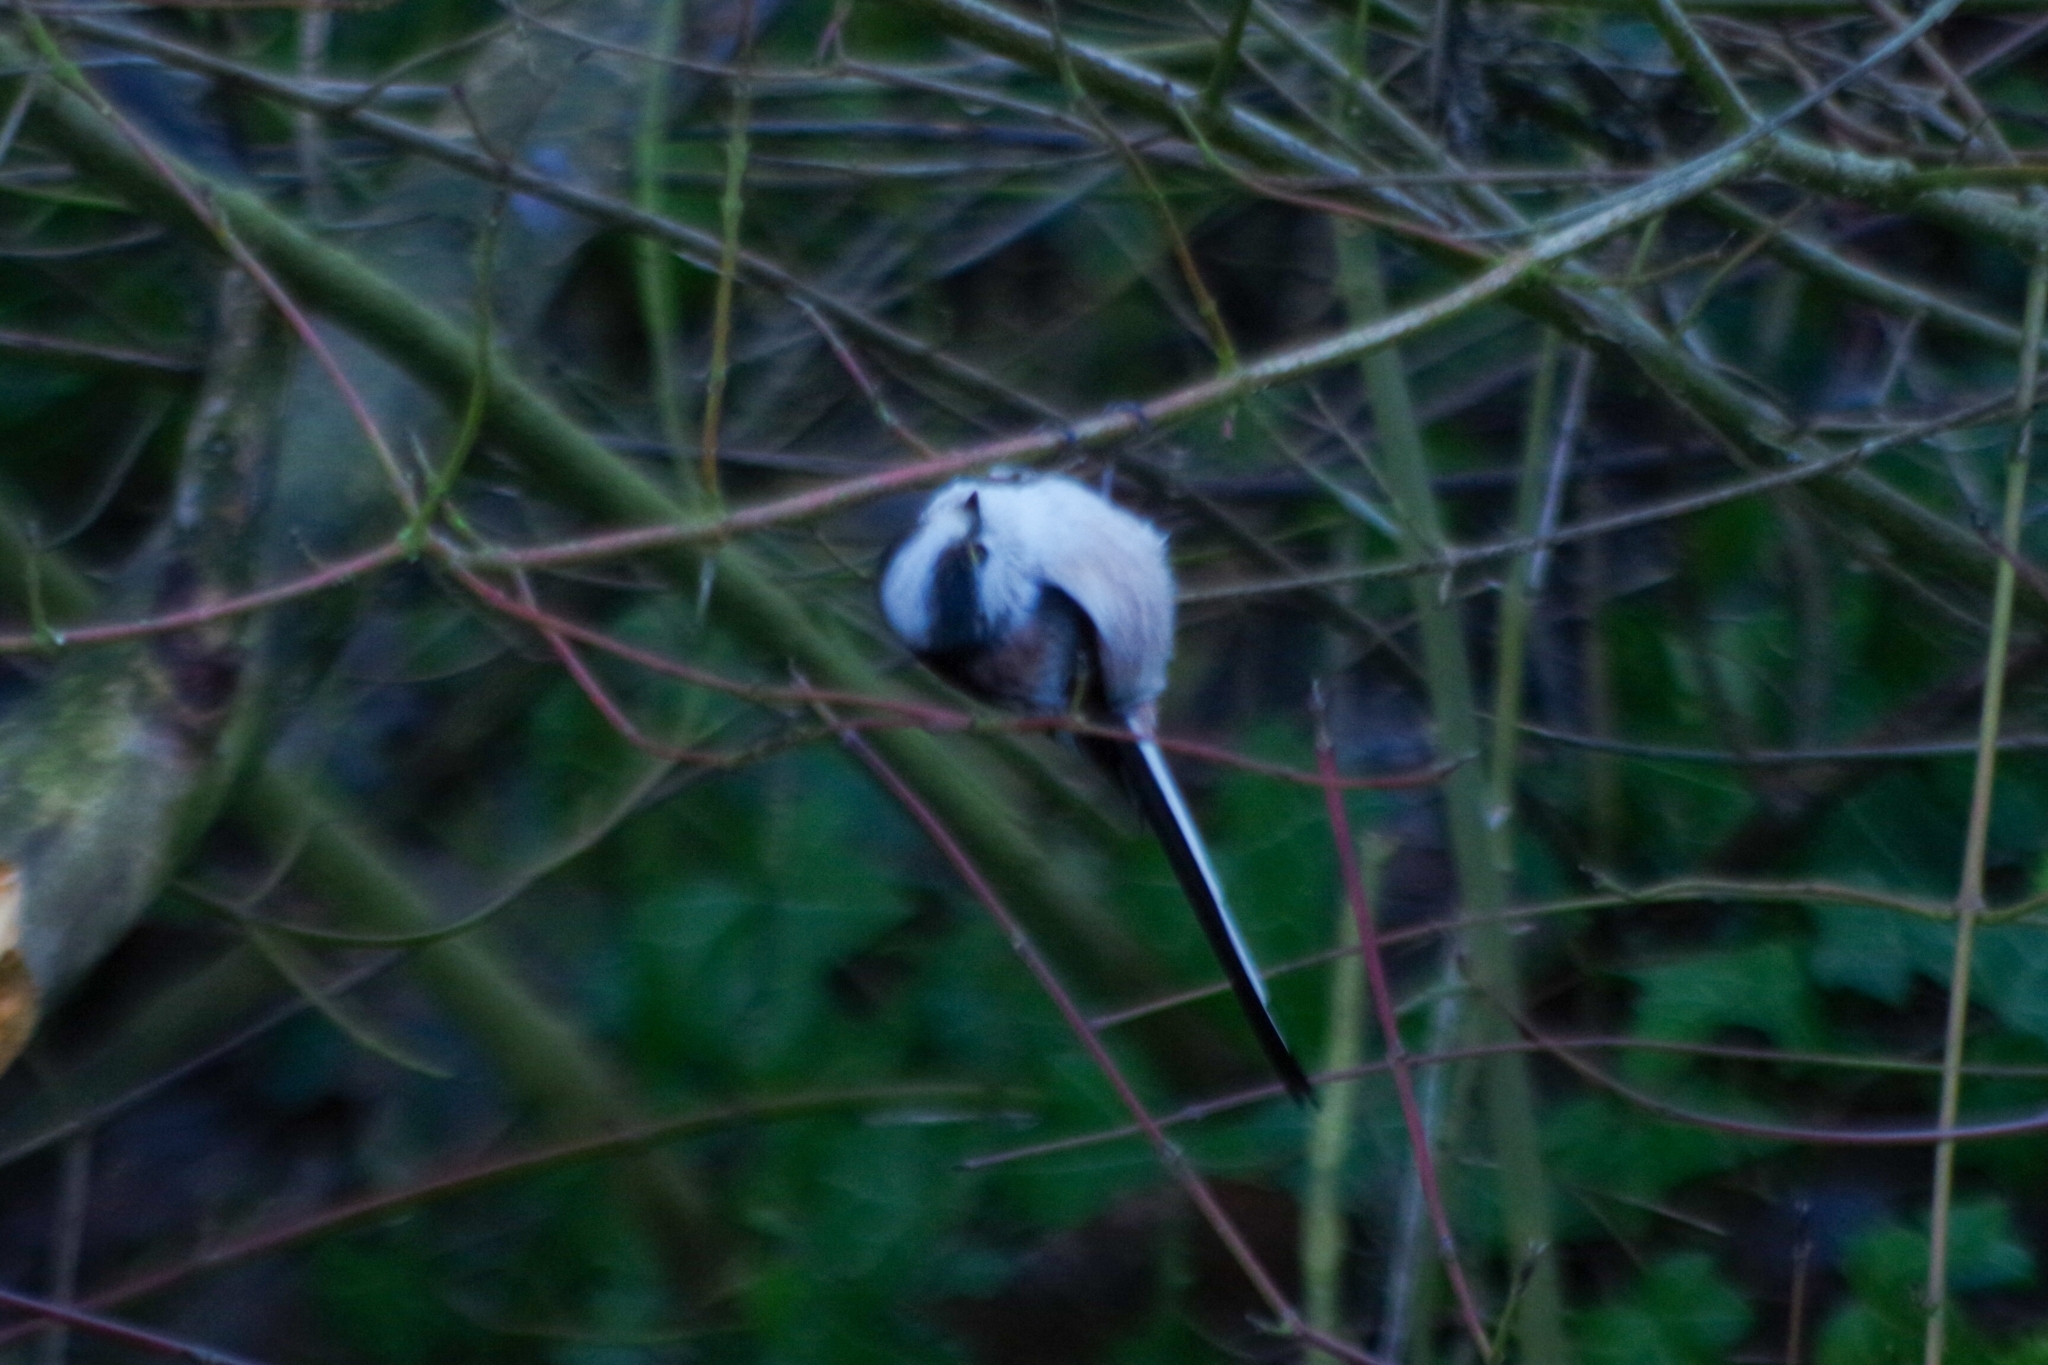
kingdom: Animalia
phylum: Chordata
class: Aves
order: Passeriformes
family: Aegithalidae
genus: Aegithalos
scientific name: Aegithalos caudatus
